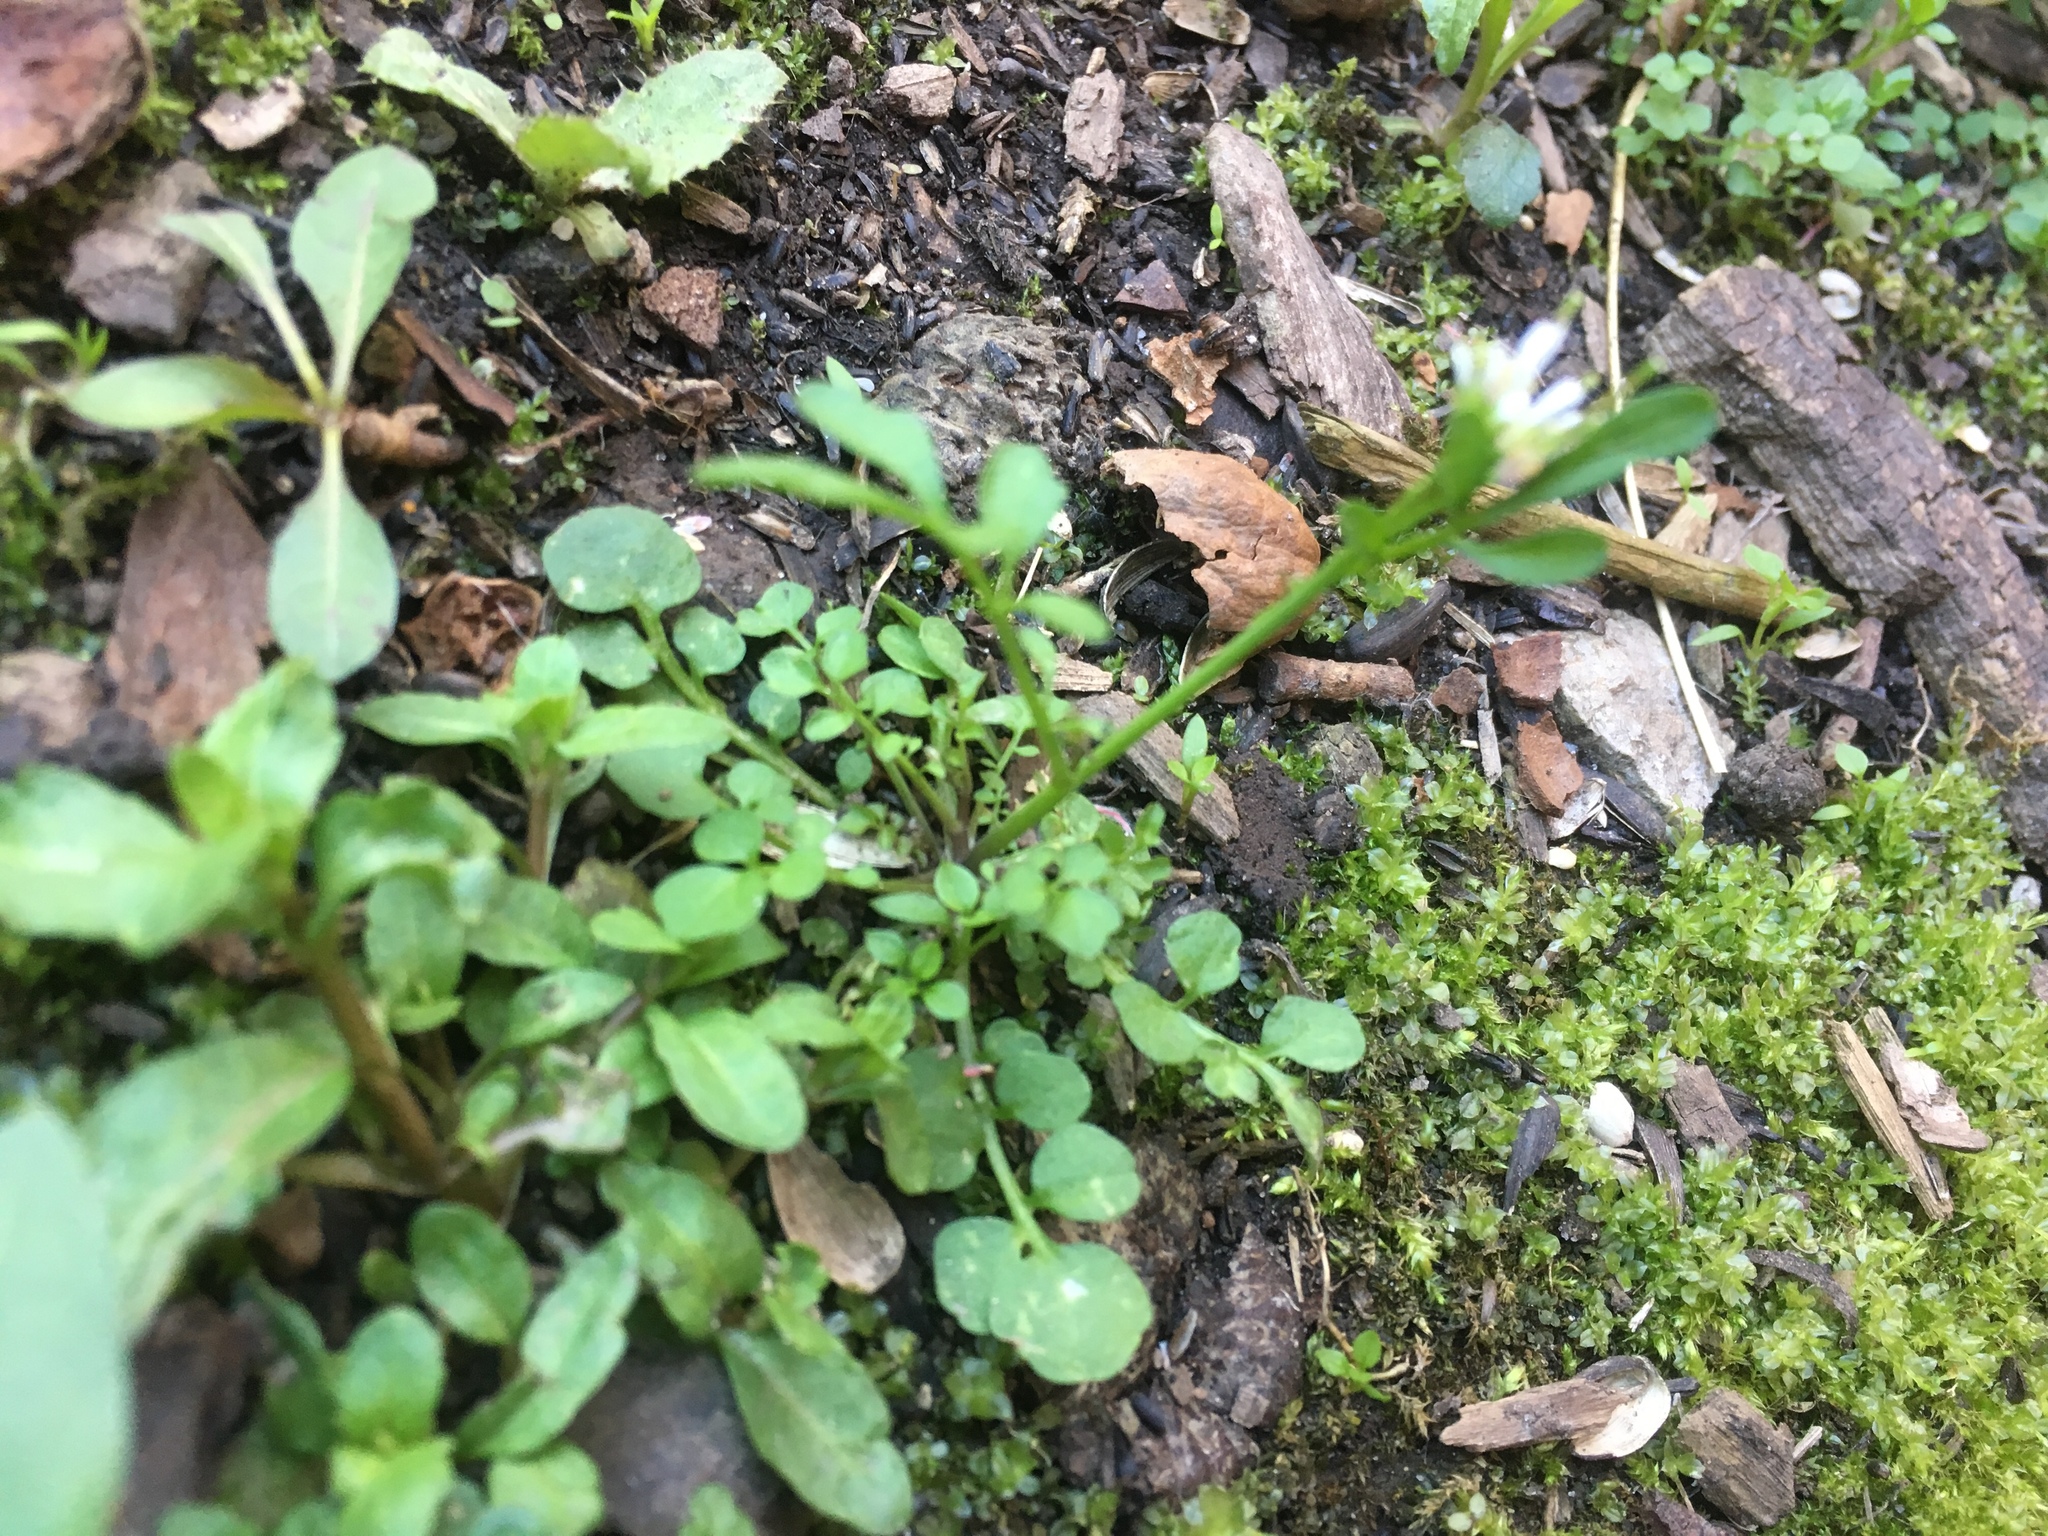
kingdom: Plantae
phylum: Tracheophyta
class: Magnoliopsida
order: Brassicales
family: Brassicaceae
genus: Cardamine
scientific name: Cardamine hirsuta
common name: Hairy bittercress
